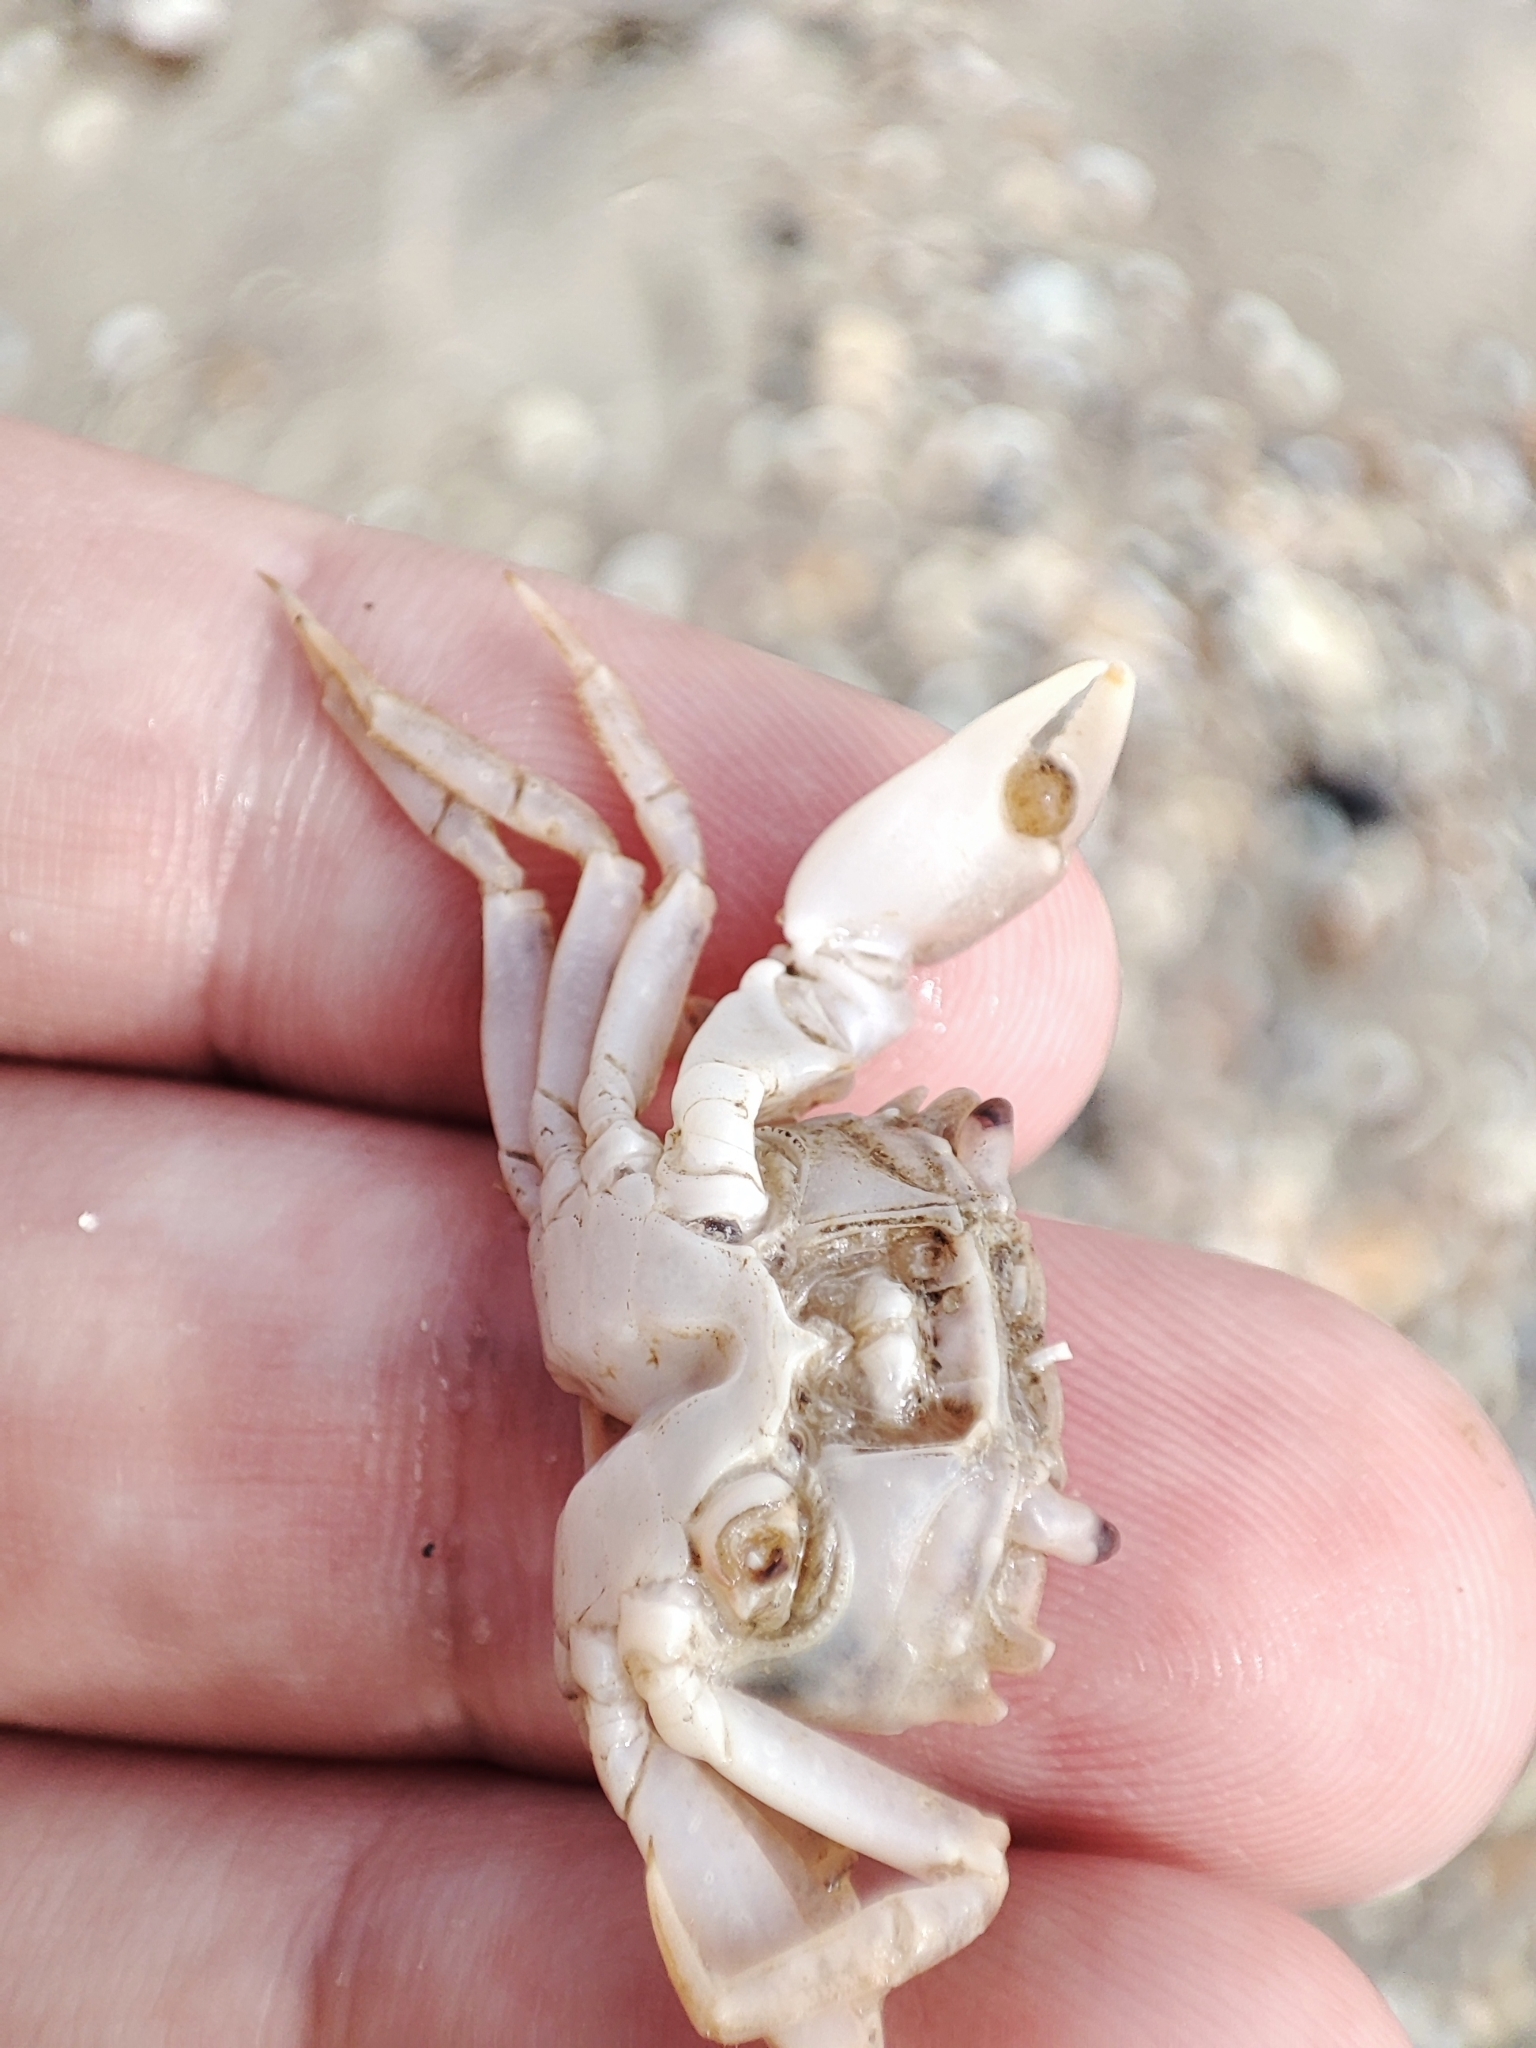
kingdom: Animalia
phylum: Arthropoda
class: Malacostraca
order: Decapoda
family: Varunidae
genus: Brachynotus
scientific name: Brachynotus sexdentatus
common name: Mediterranean crab
